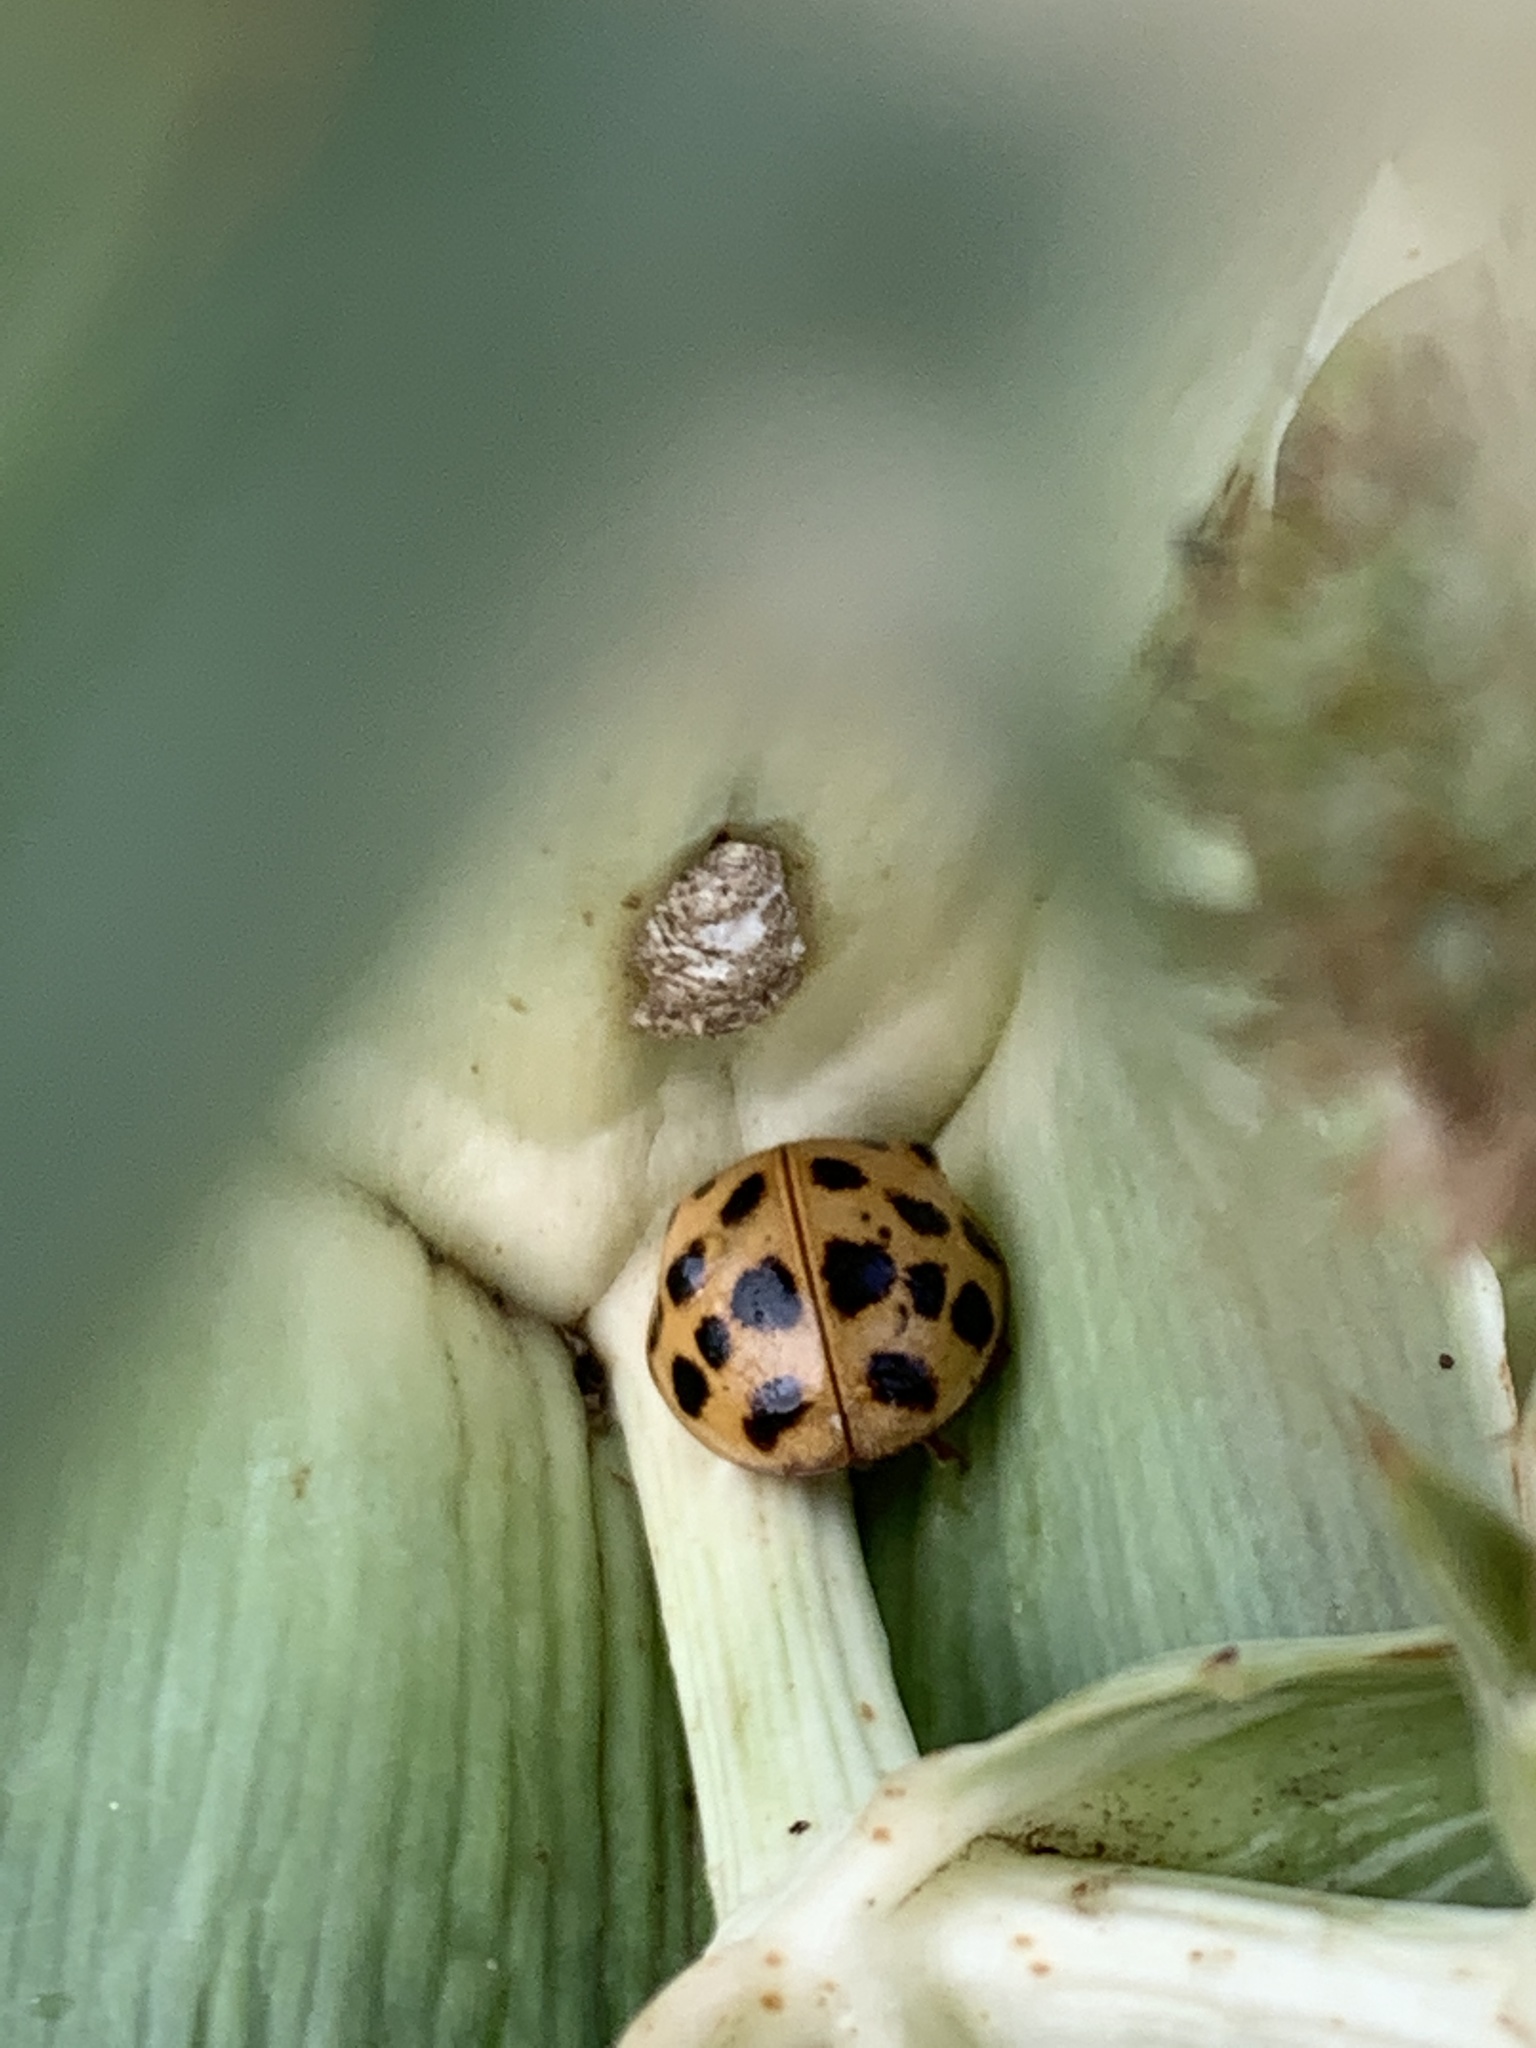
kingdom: Animalia
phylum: Arthropoda
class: Insecta
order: Coleoptera
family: Coccinellidae
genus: Harmonia
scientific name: Harmonia axyridis
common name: Harlequin ladybird
